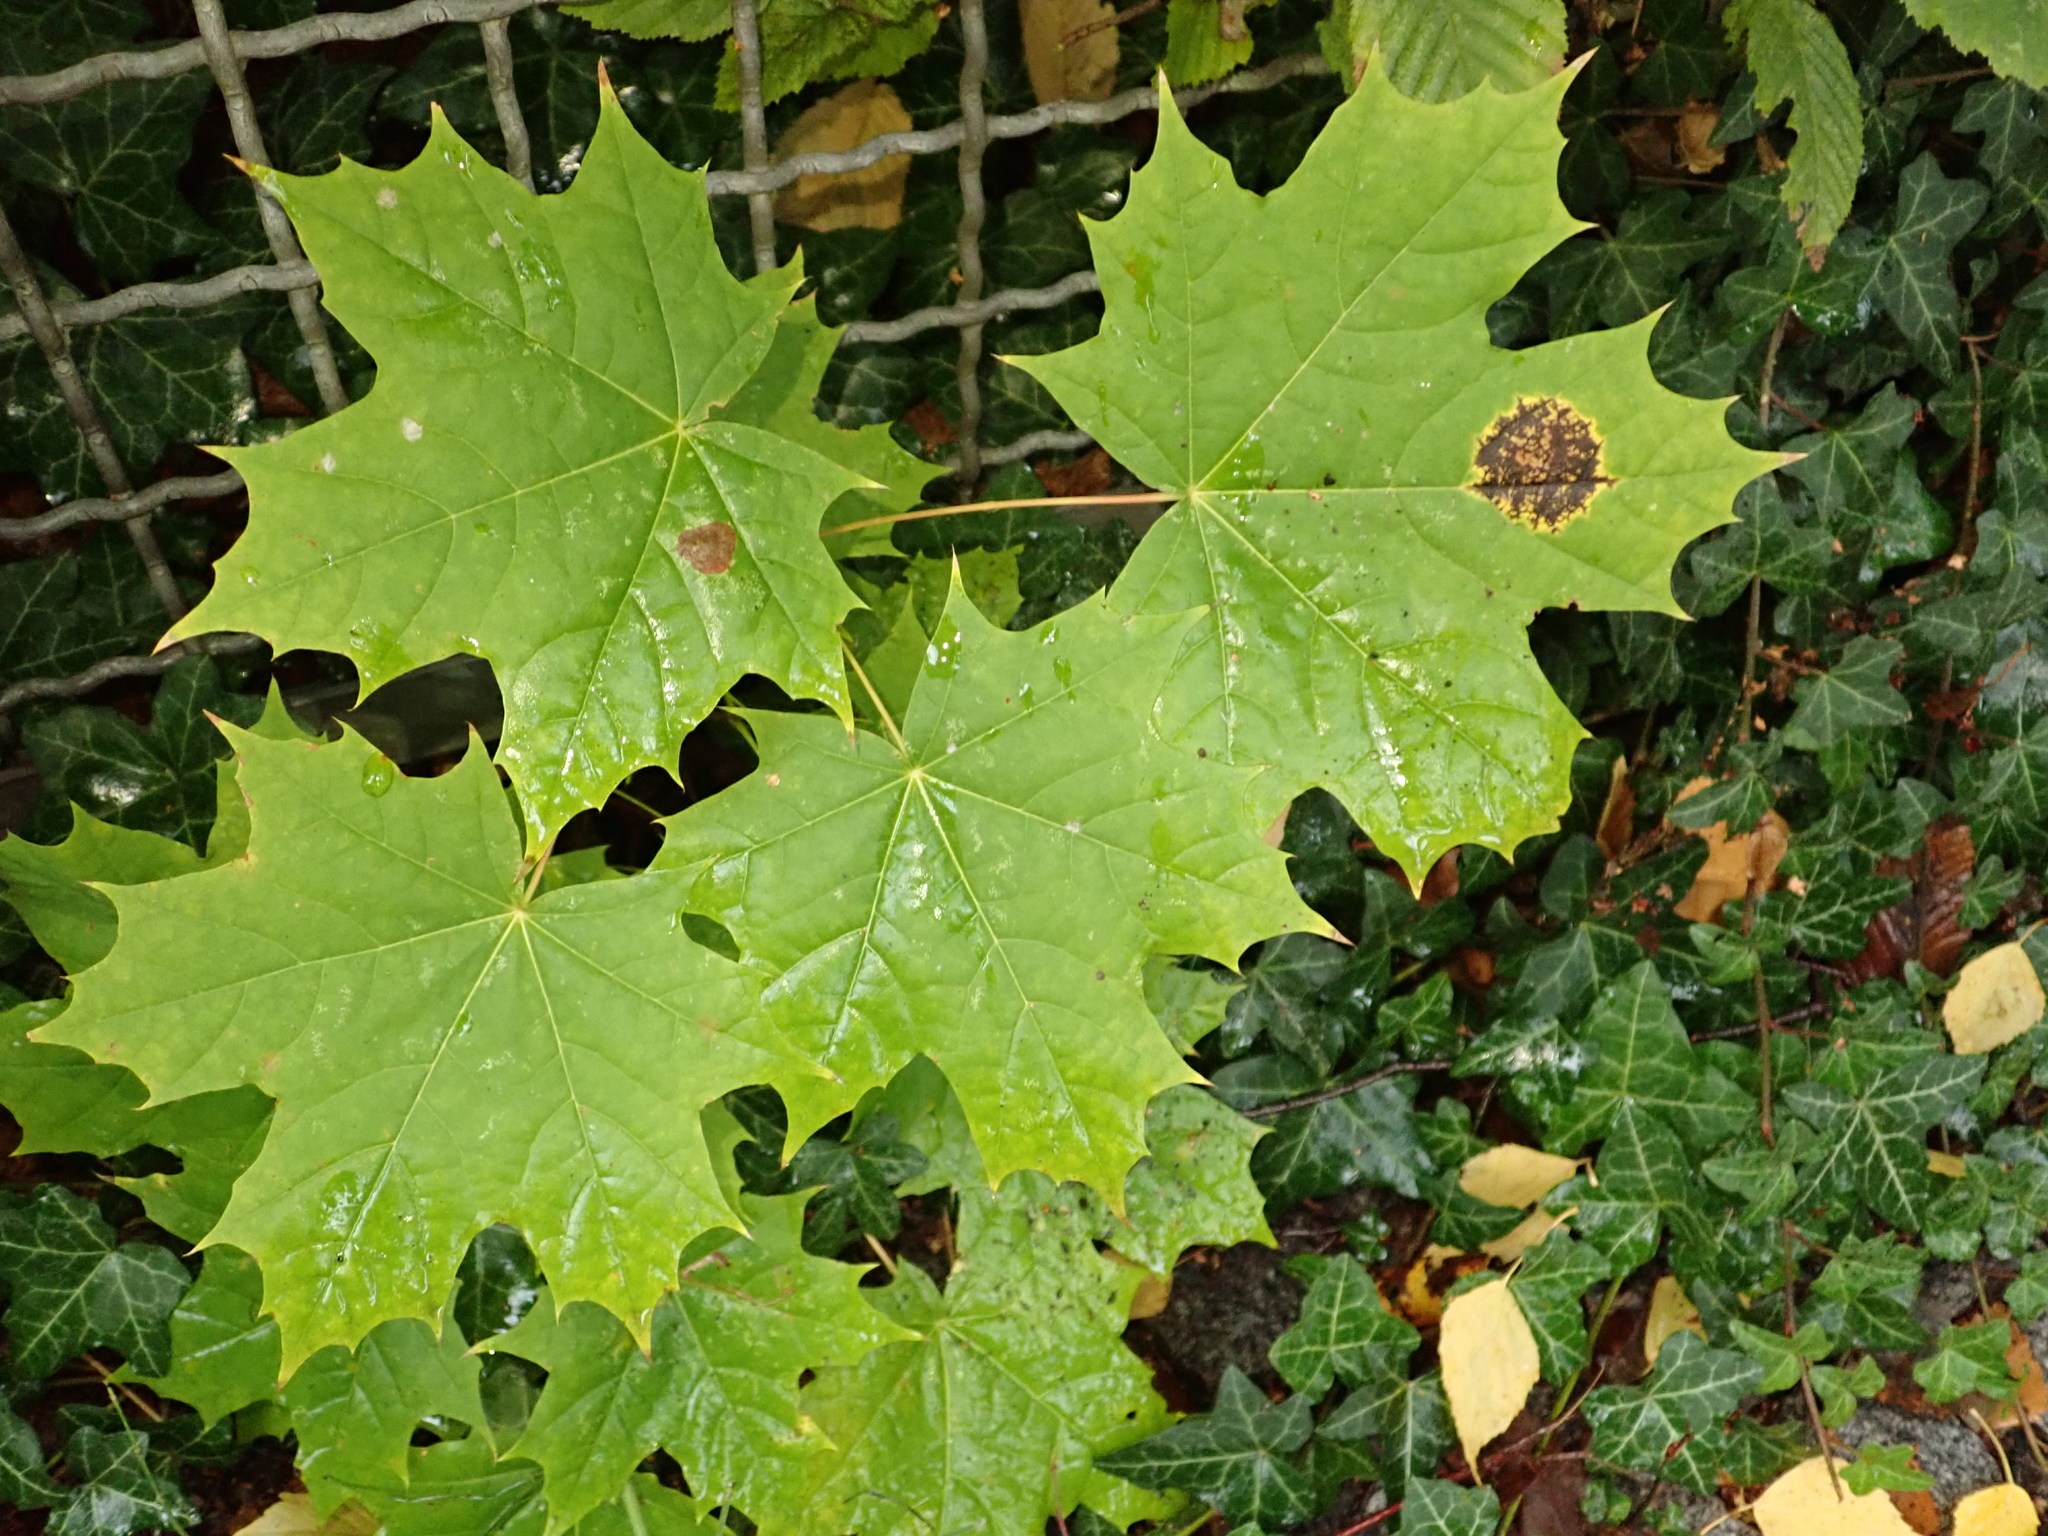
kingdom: Plantae
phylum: Tracheophyta
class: Magnoliopsida
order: Sapindales
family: Sapindaceae
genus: Acer
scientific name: Acer platanoides
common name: Norway maple
